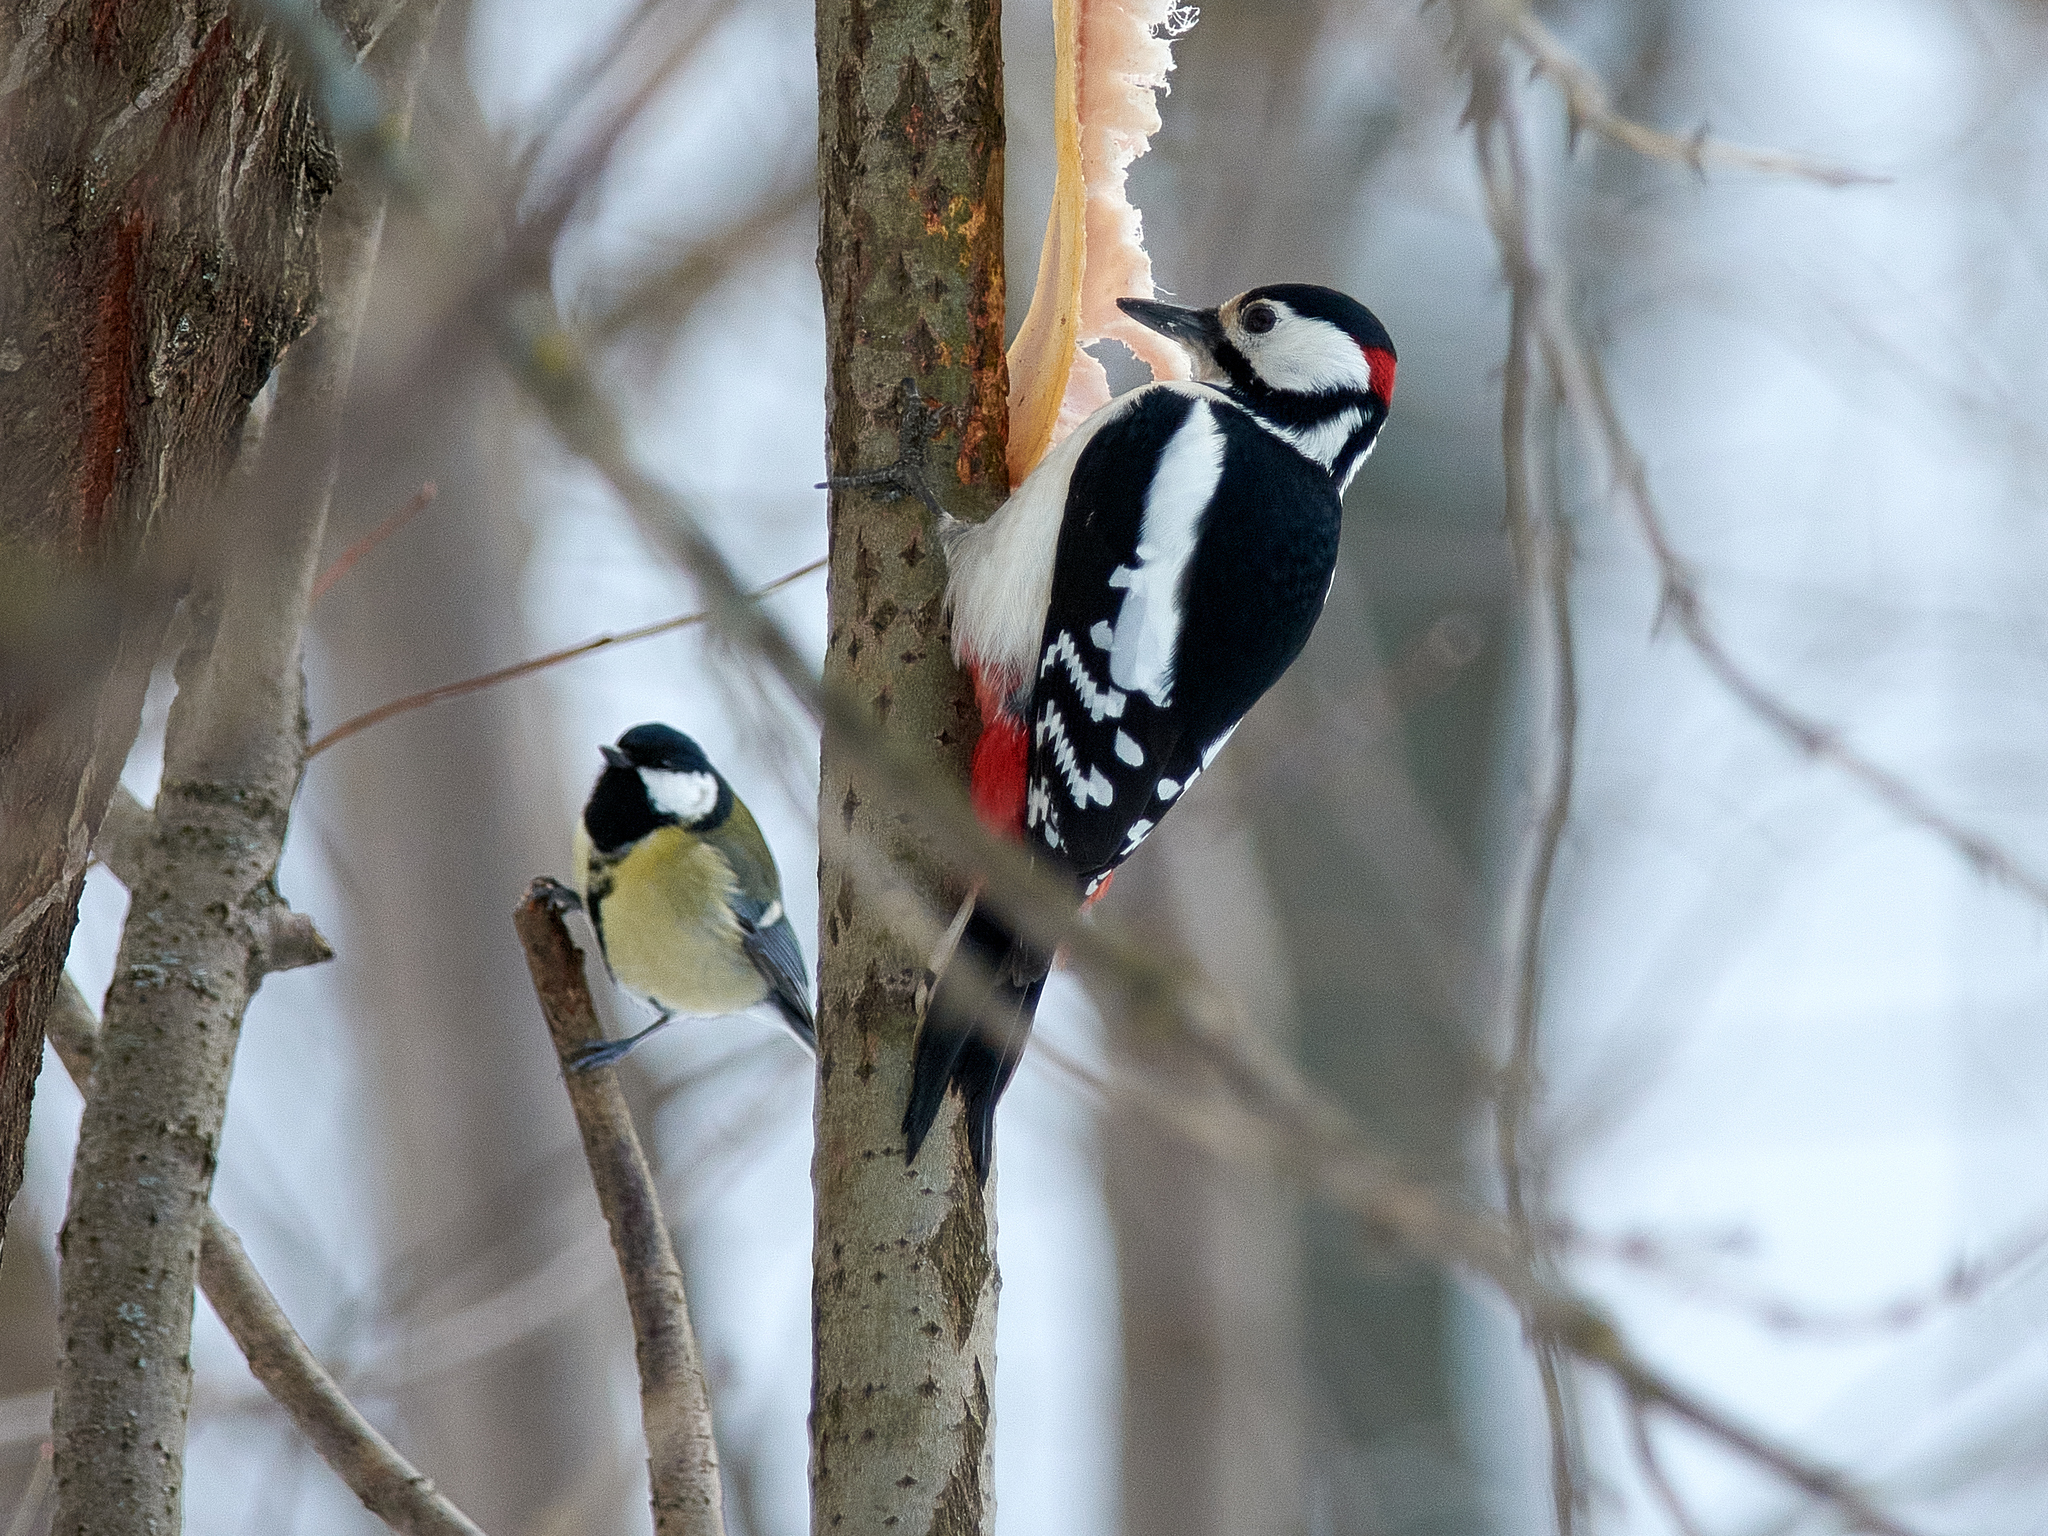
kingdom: Animalia
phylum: Chordata
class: Aves
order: Piciformes
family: Picidae
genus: Dendrocopos
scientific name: Dendrocopos major
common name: Great spotted woodpecker
